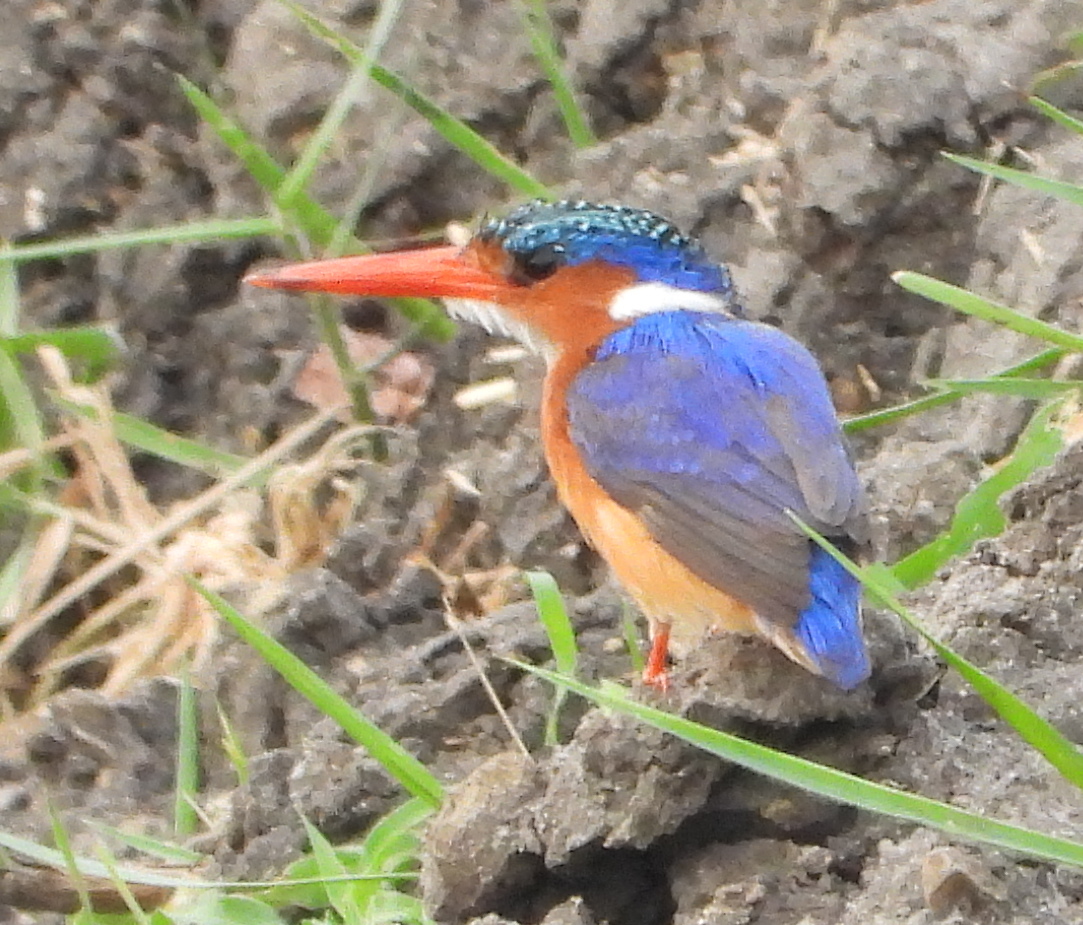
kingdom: Animalia
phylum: Chordata
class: Aves
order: Coraciiformes
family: Alcedinidae
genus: Corythornis
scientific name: Corythornis cristatus
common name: Malachite kingfisher
